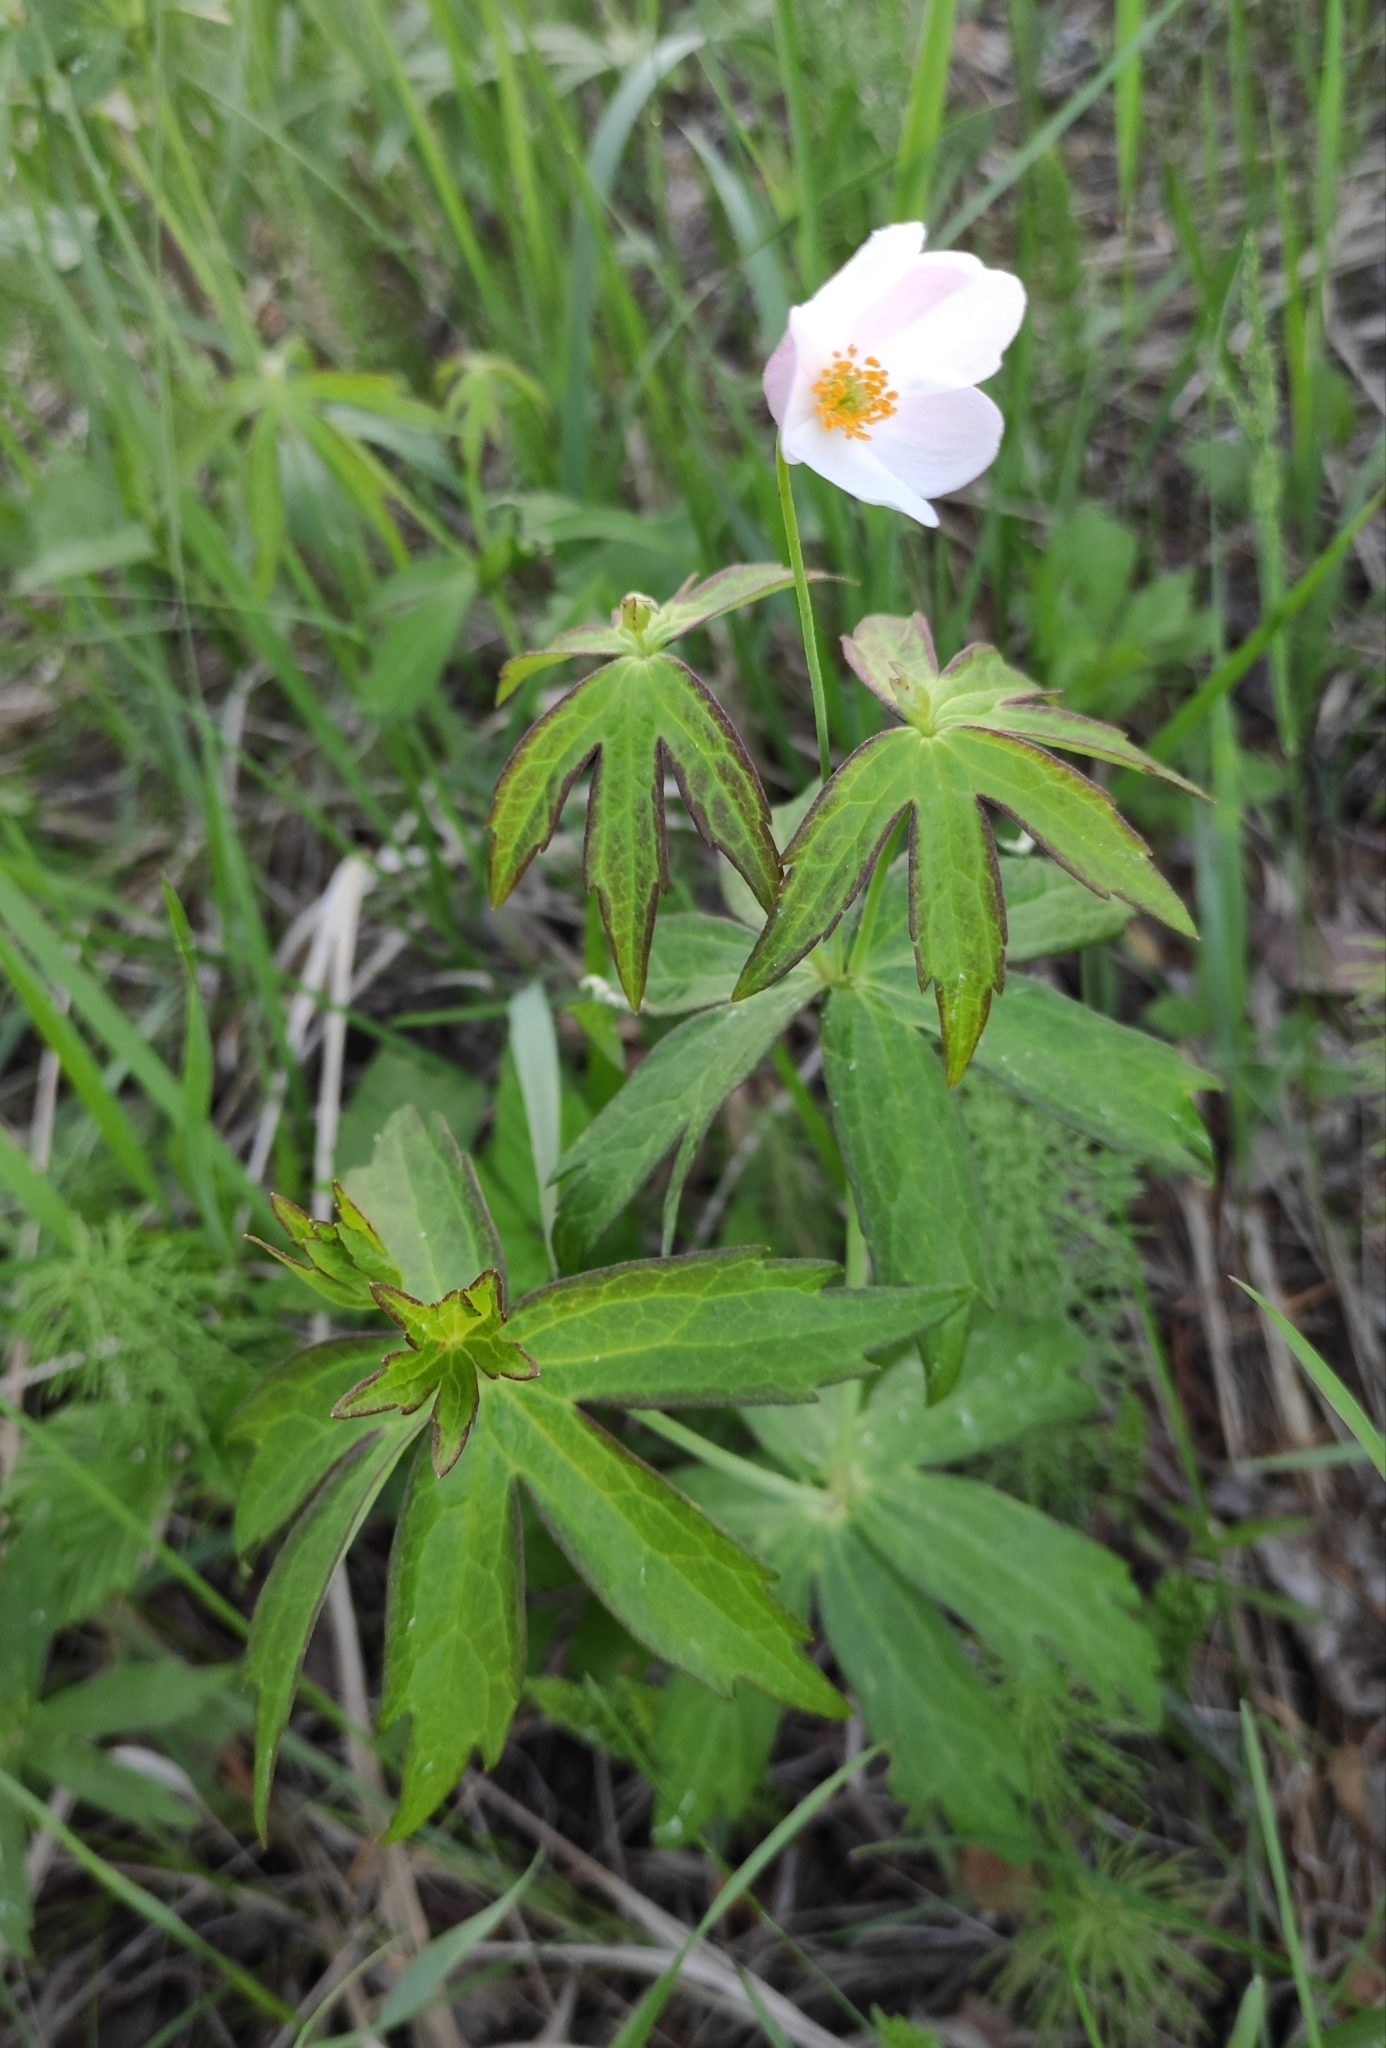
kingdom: Plantae
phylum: Tracheophyta
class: Magnoliopsida
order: Ranunculales
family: Ranunculaceae
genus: Anemonastrum
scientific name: Anemonastrum dichotomum
